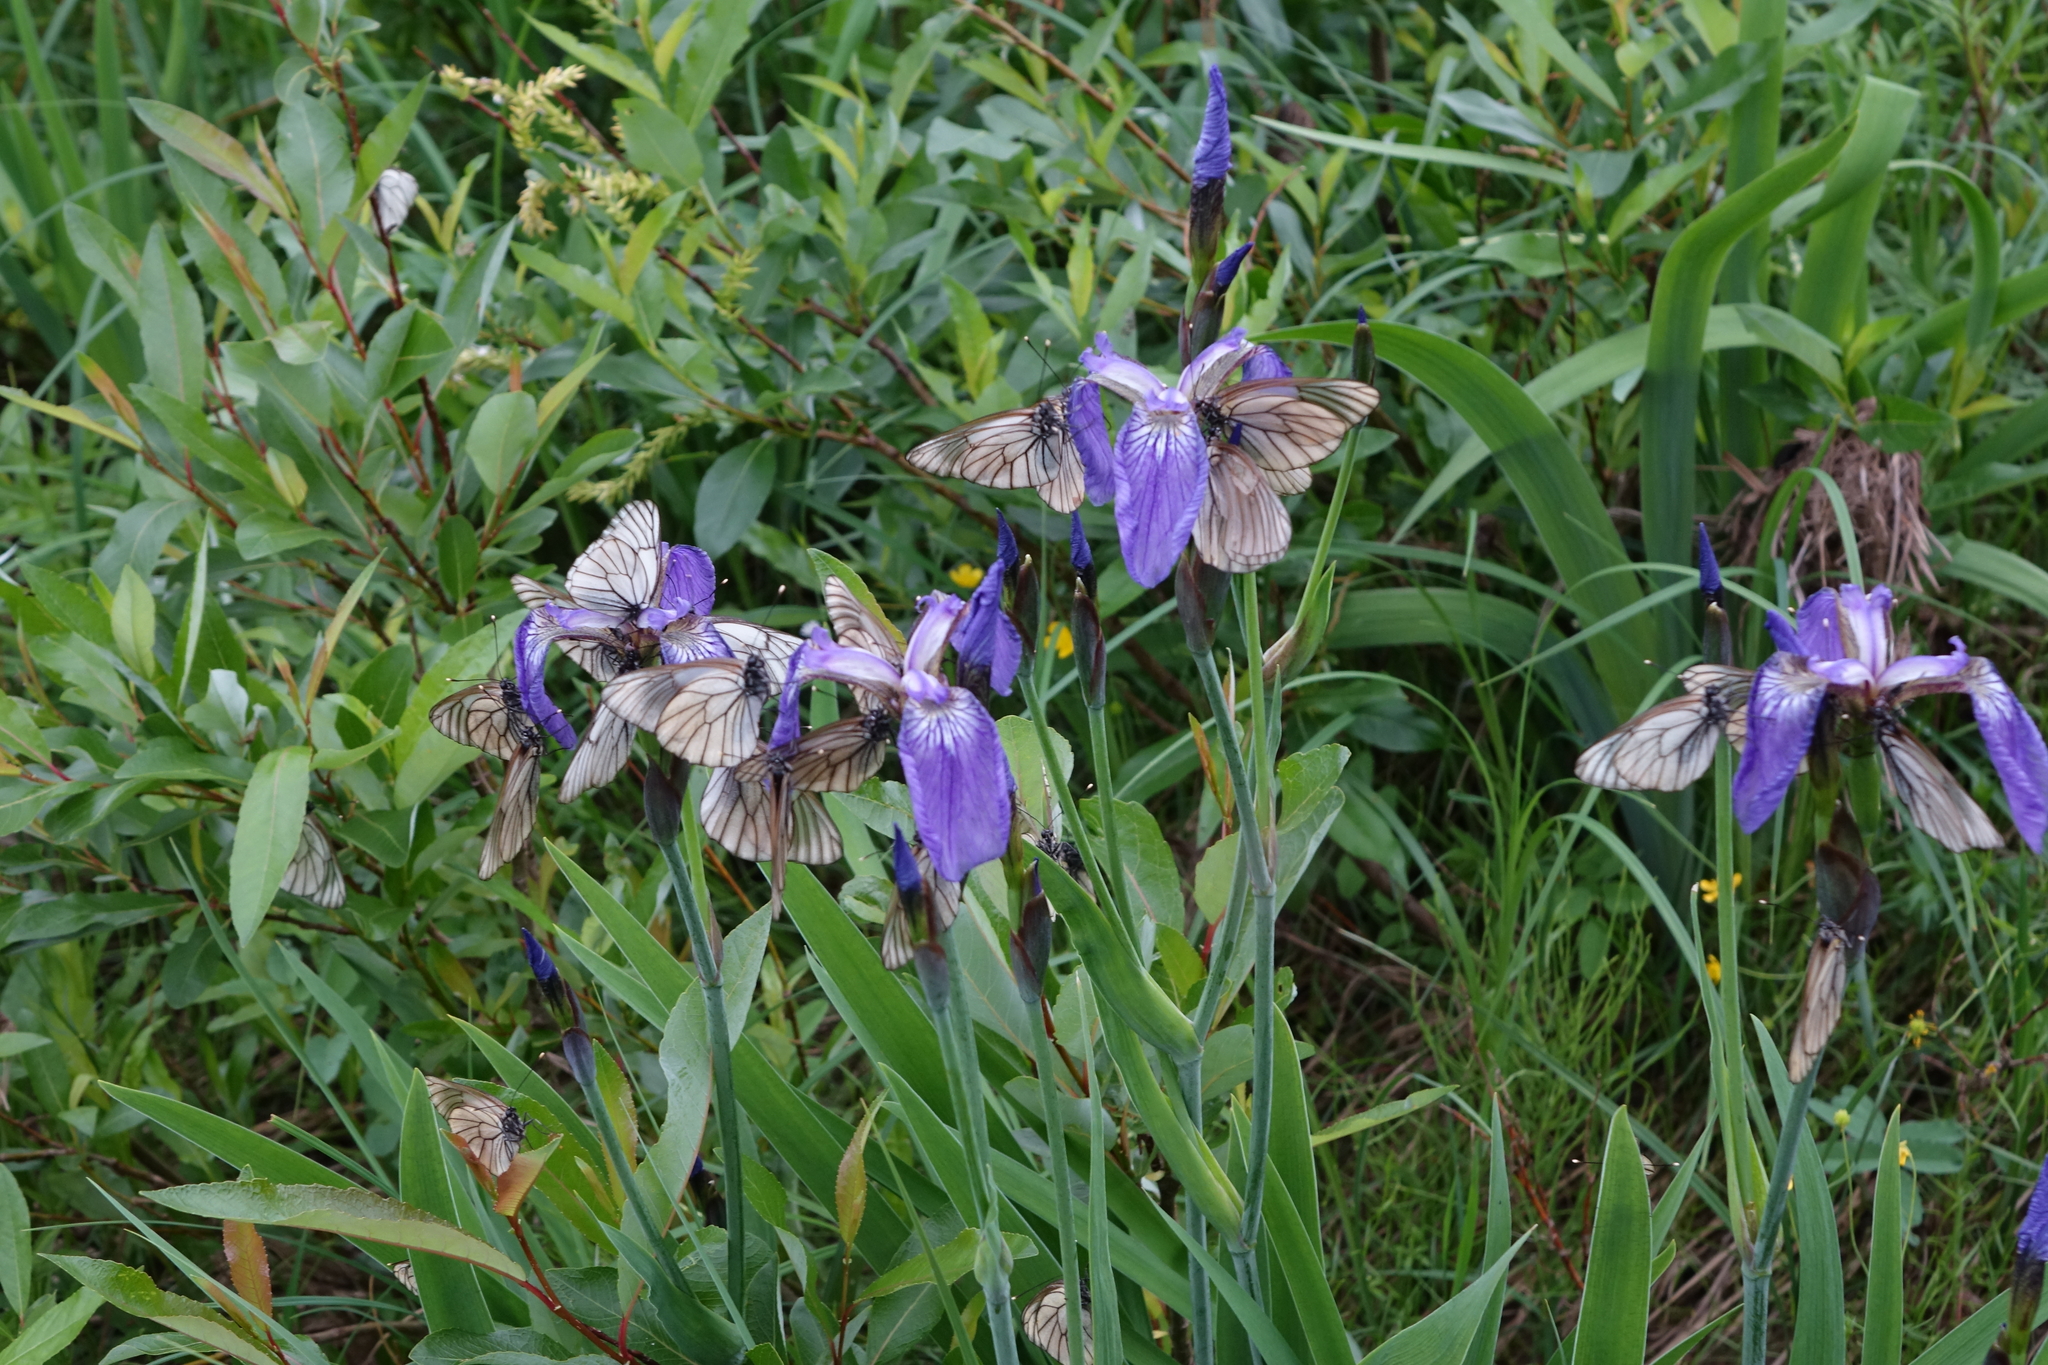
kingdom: Animalia
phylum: Arthropoda
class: Insecta
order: Lepidoptera
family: Pieridae
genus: Aporia
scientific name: Aporia crataegi
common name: Black-veined white
